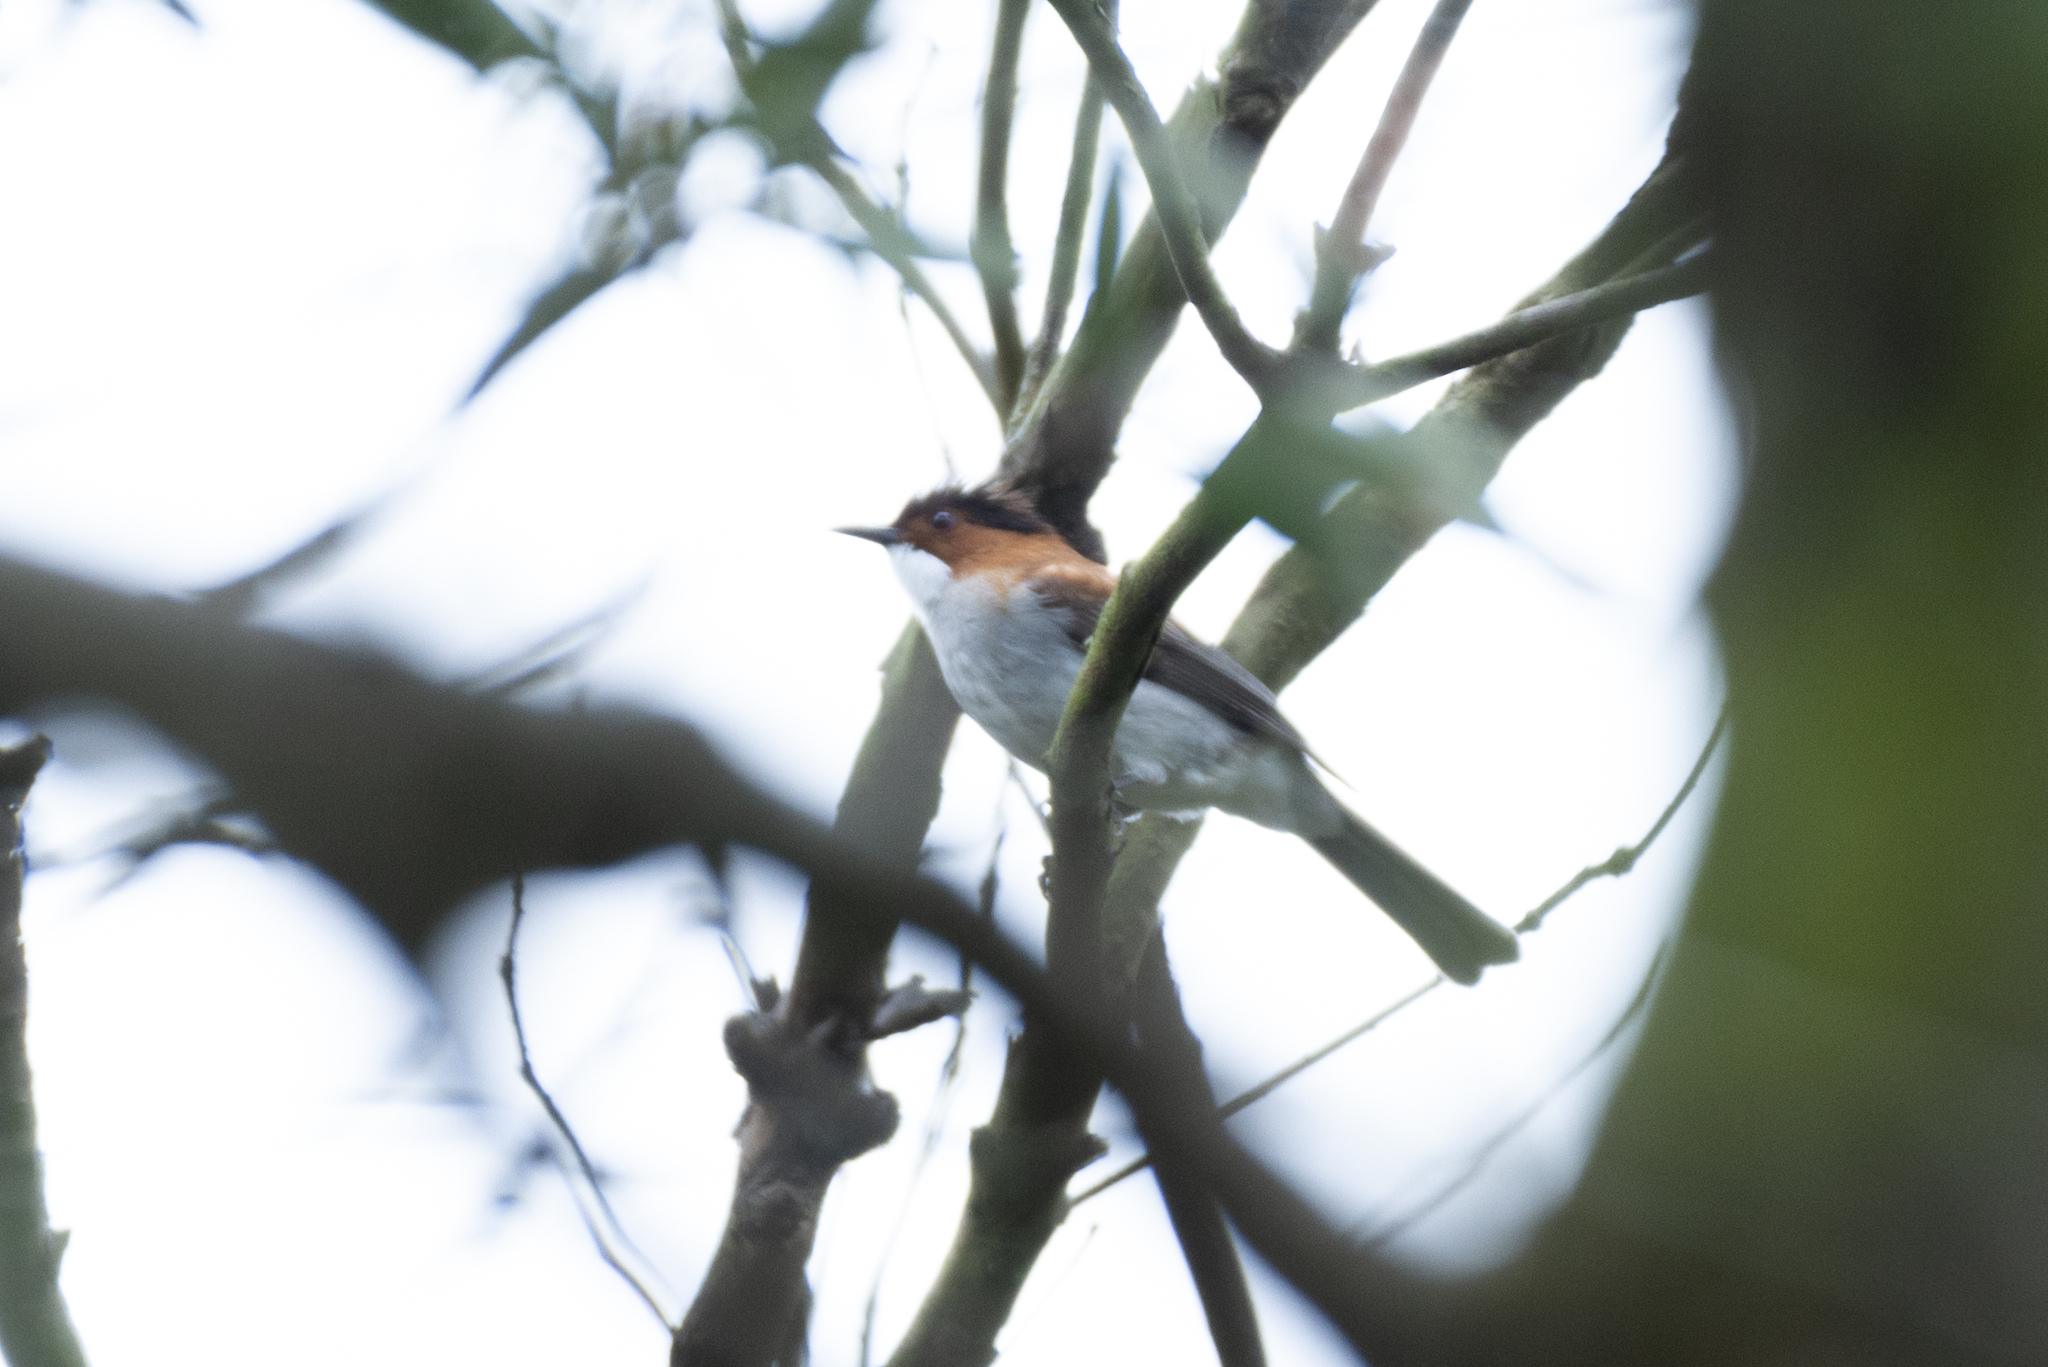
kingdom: Animalia
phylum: Chordata
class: Aves
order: Passeriformes
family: Pycnonotidae
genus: Hemixos
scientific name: Hemixos castanonotus
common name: Chestnut bulbul
